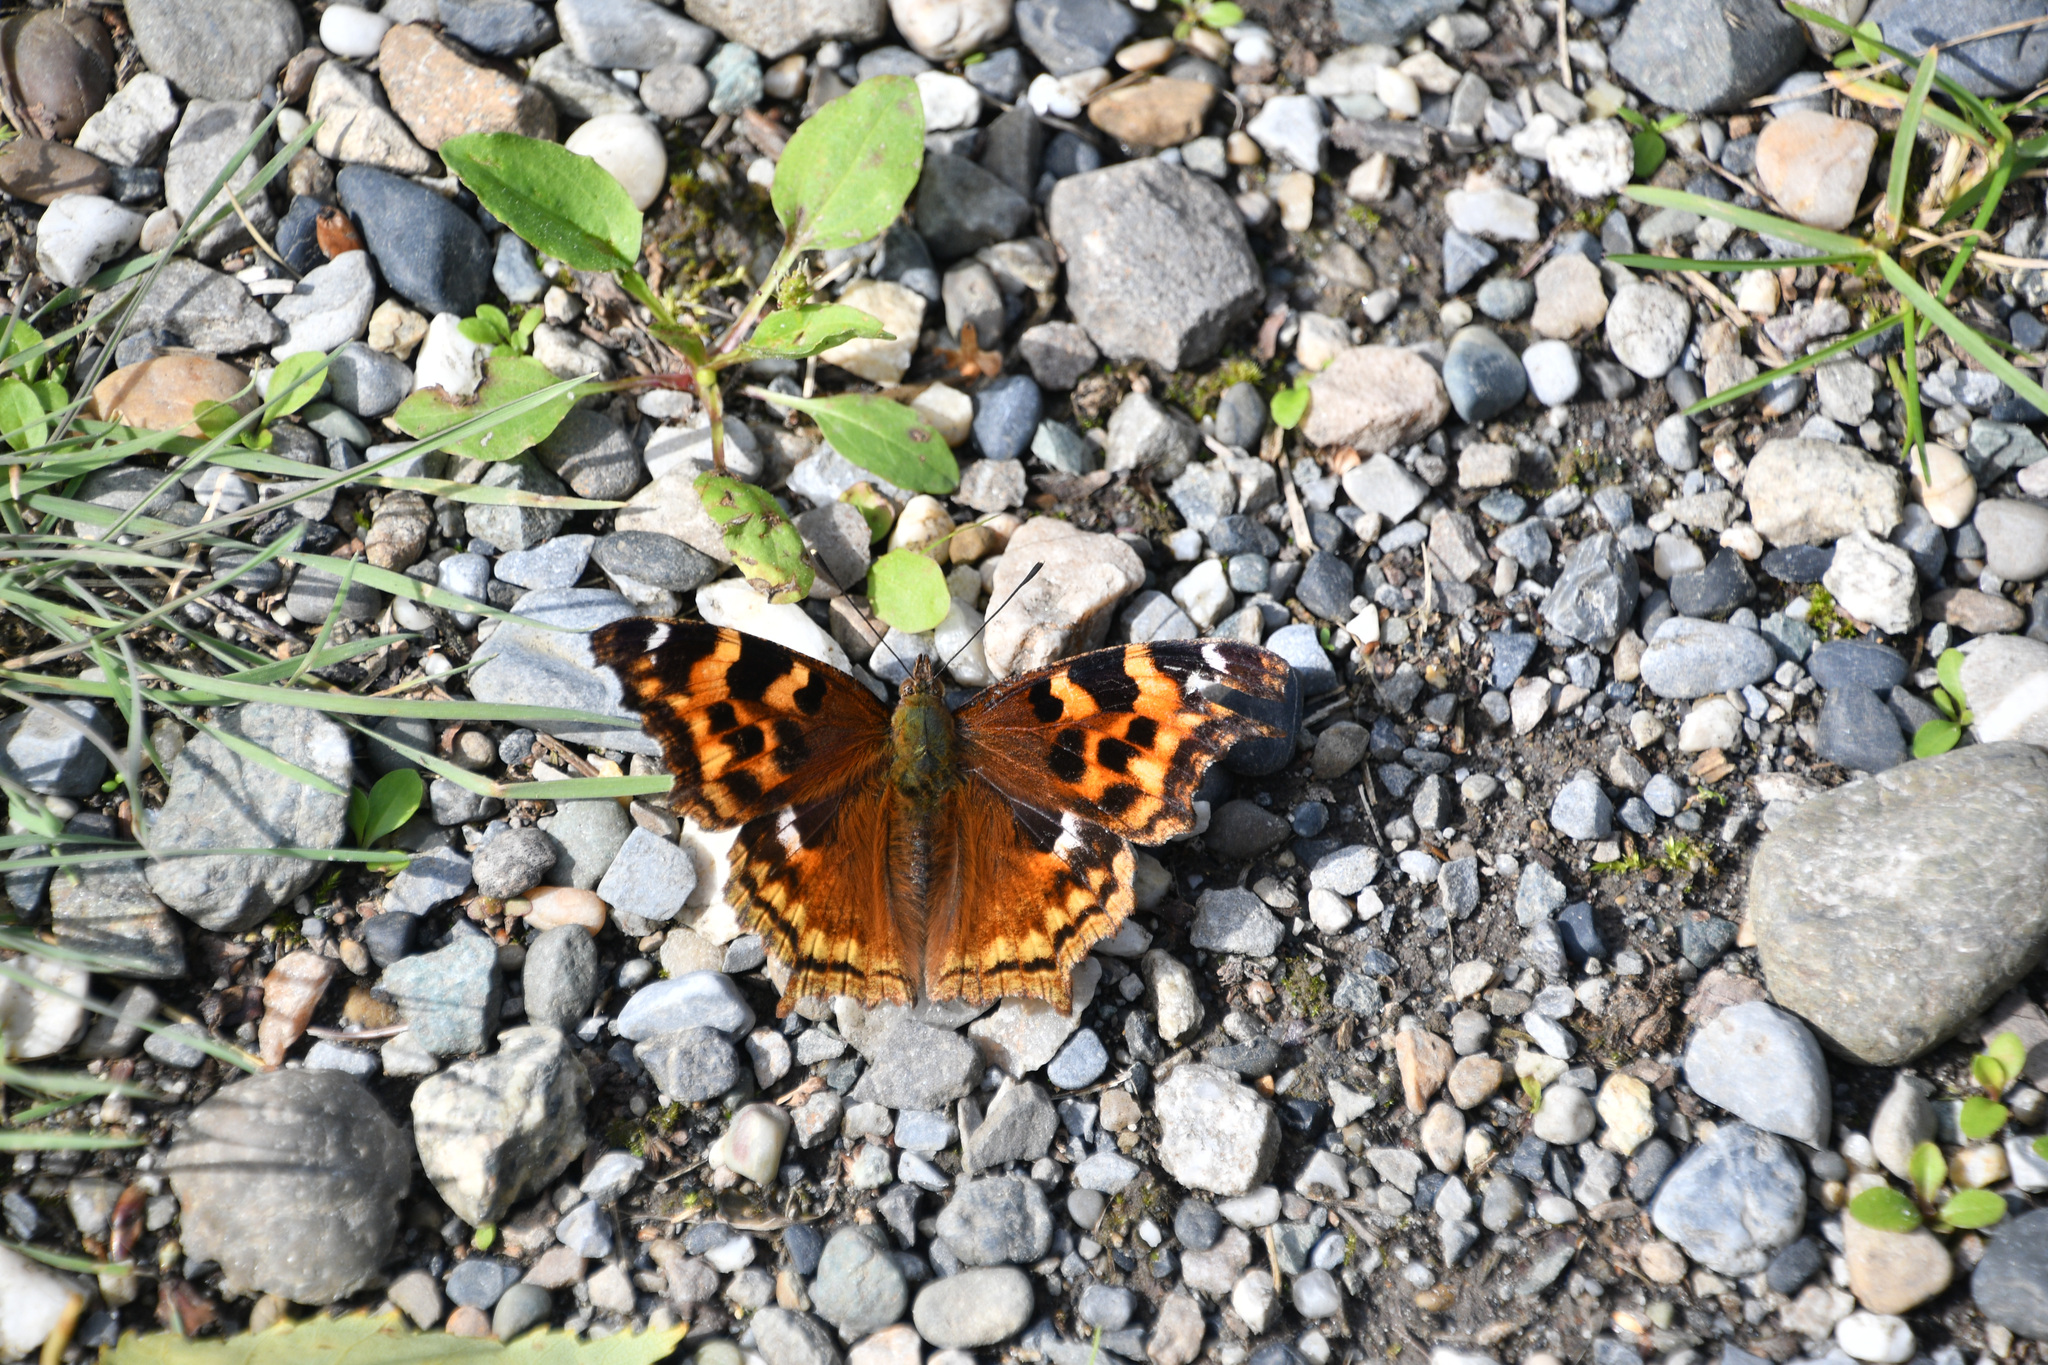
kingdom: Animalia
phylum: Arthropoda
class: Insecta
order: Lepidoptera
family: Nymphalidae
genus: Polygonia
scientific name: Polygonia vaualbum
